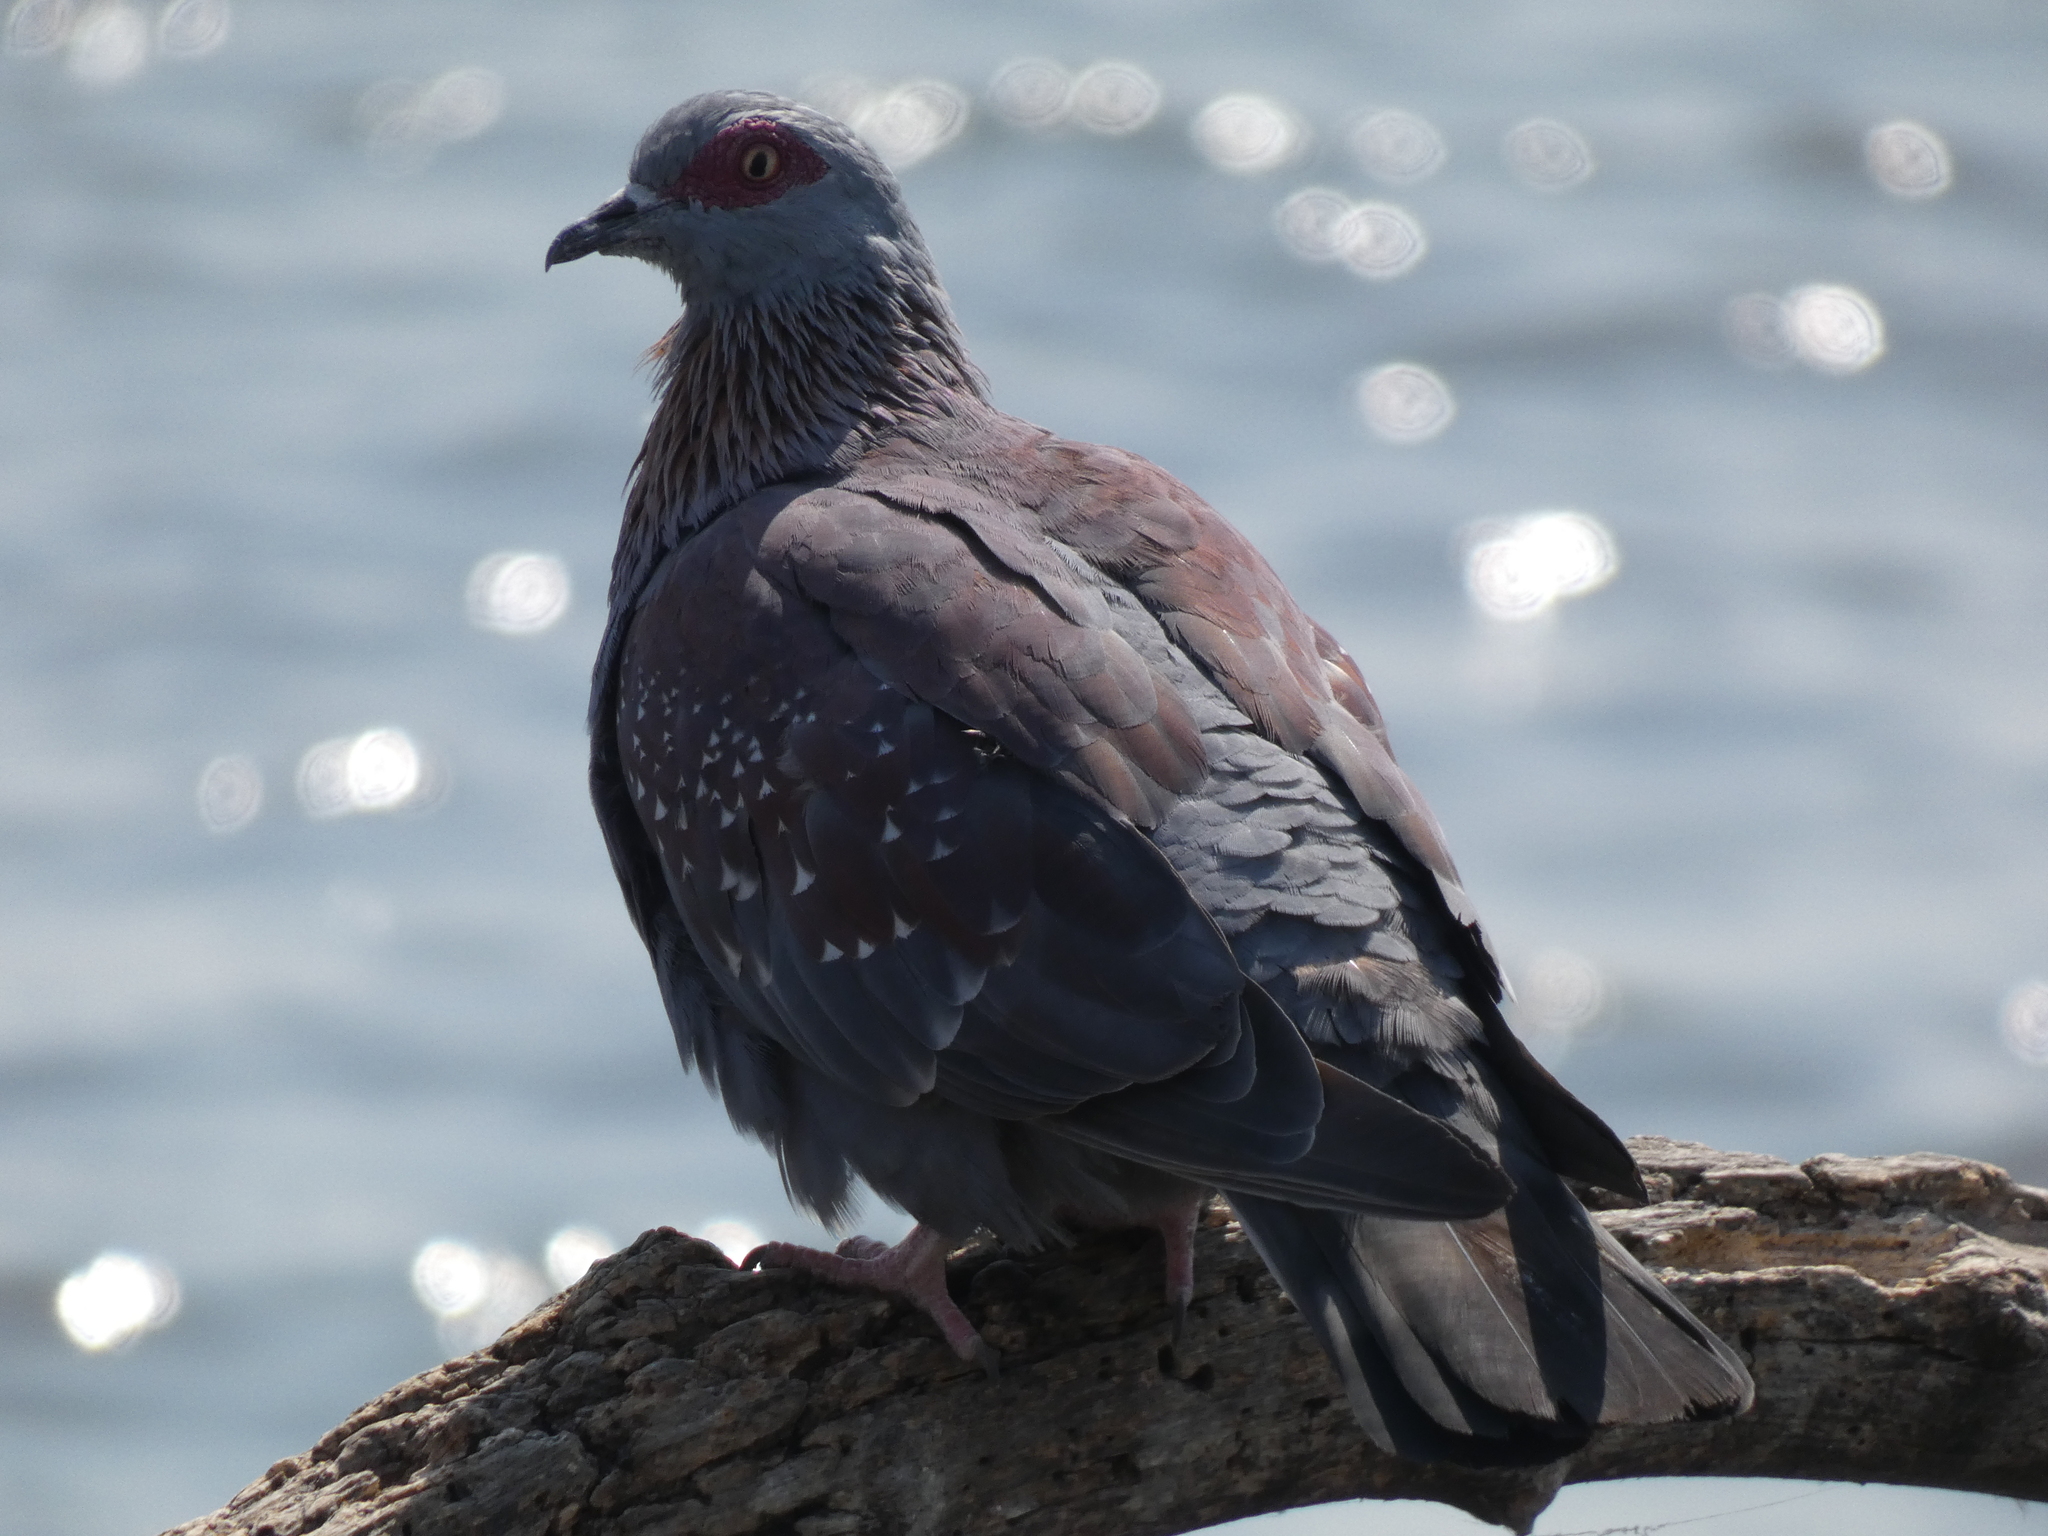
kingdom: Animalia
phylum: Chordata
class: Aves
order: Columbiformes
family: Columbidae
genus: Columba
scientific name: Columba guinea
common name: Speckled pigeon
